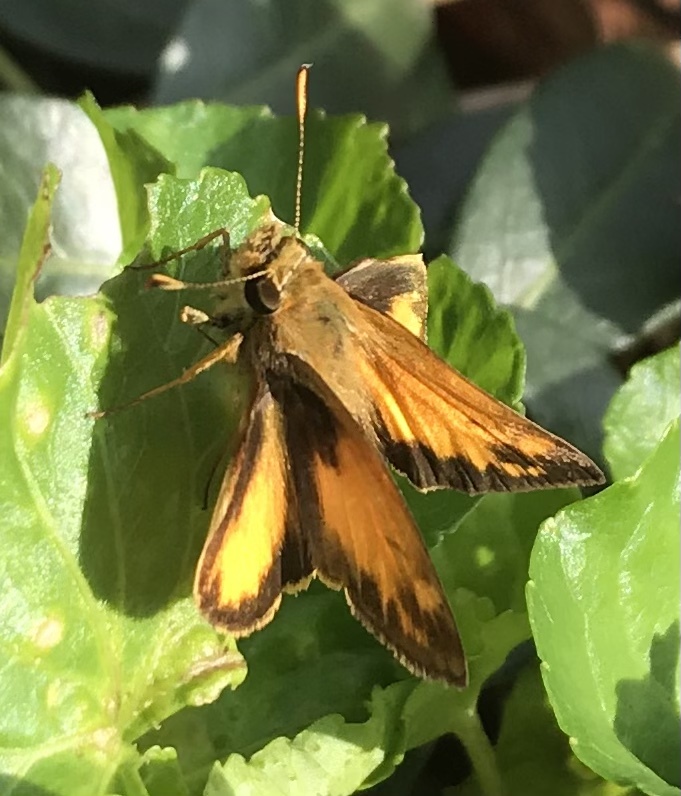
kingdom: Animalia
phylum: Arthropoda
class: Insecta
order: Lepidoptera
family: Hesperiidae
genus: Lon
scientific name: Lon zabulon
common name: Zabulon skipper
